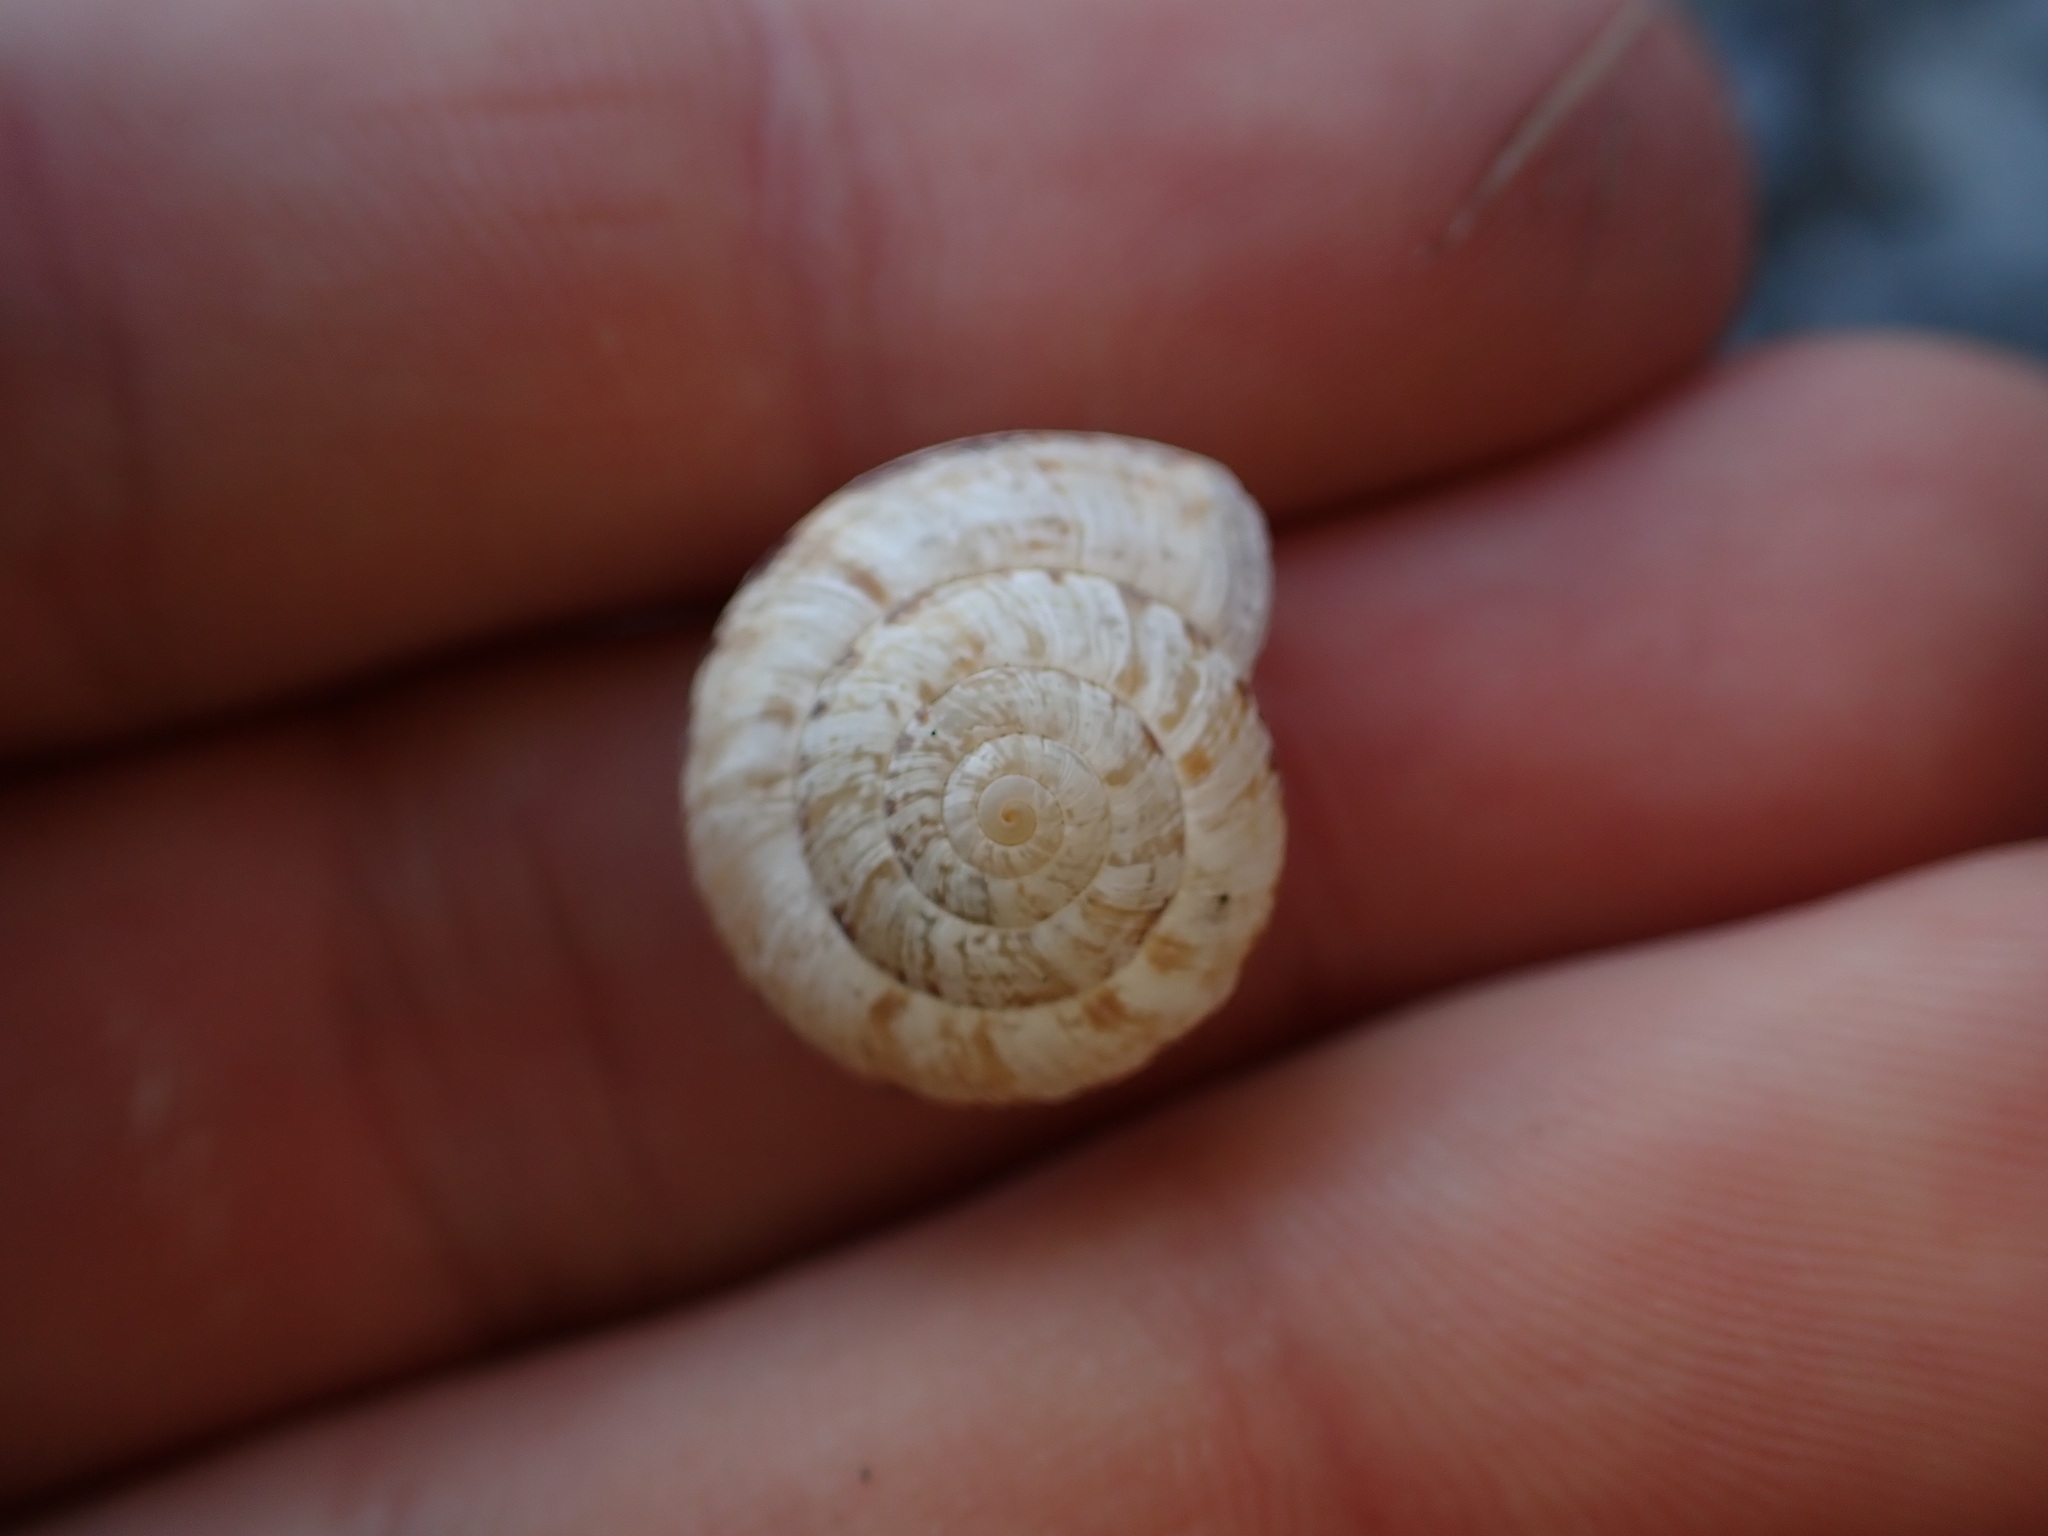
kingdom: Animalia
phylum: Mollusca
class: Gastropoda
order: Stylommatophora
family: Geomitridae
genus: Xerosecta
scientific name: Xerosecta cespitum
